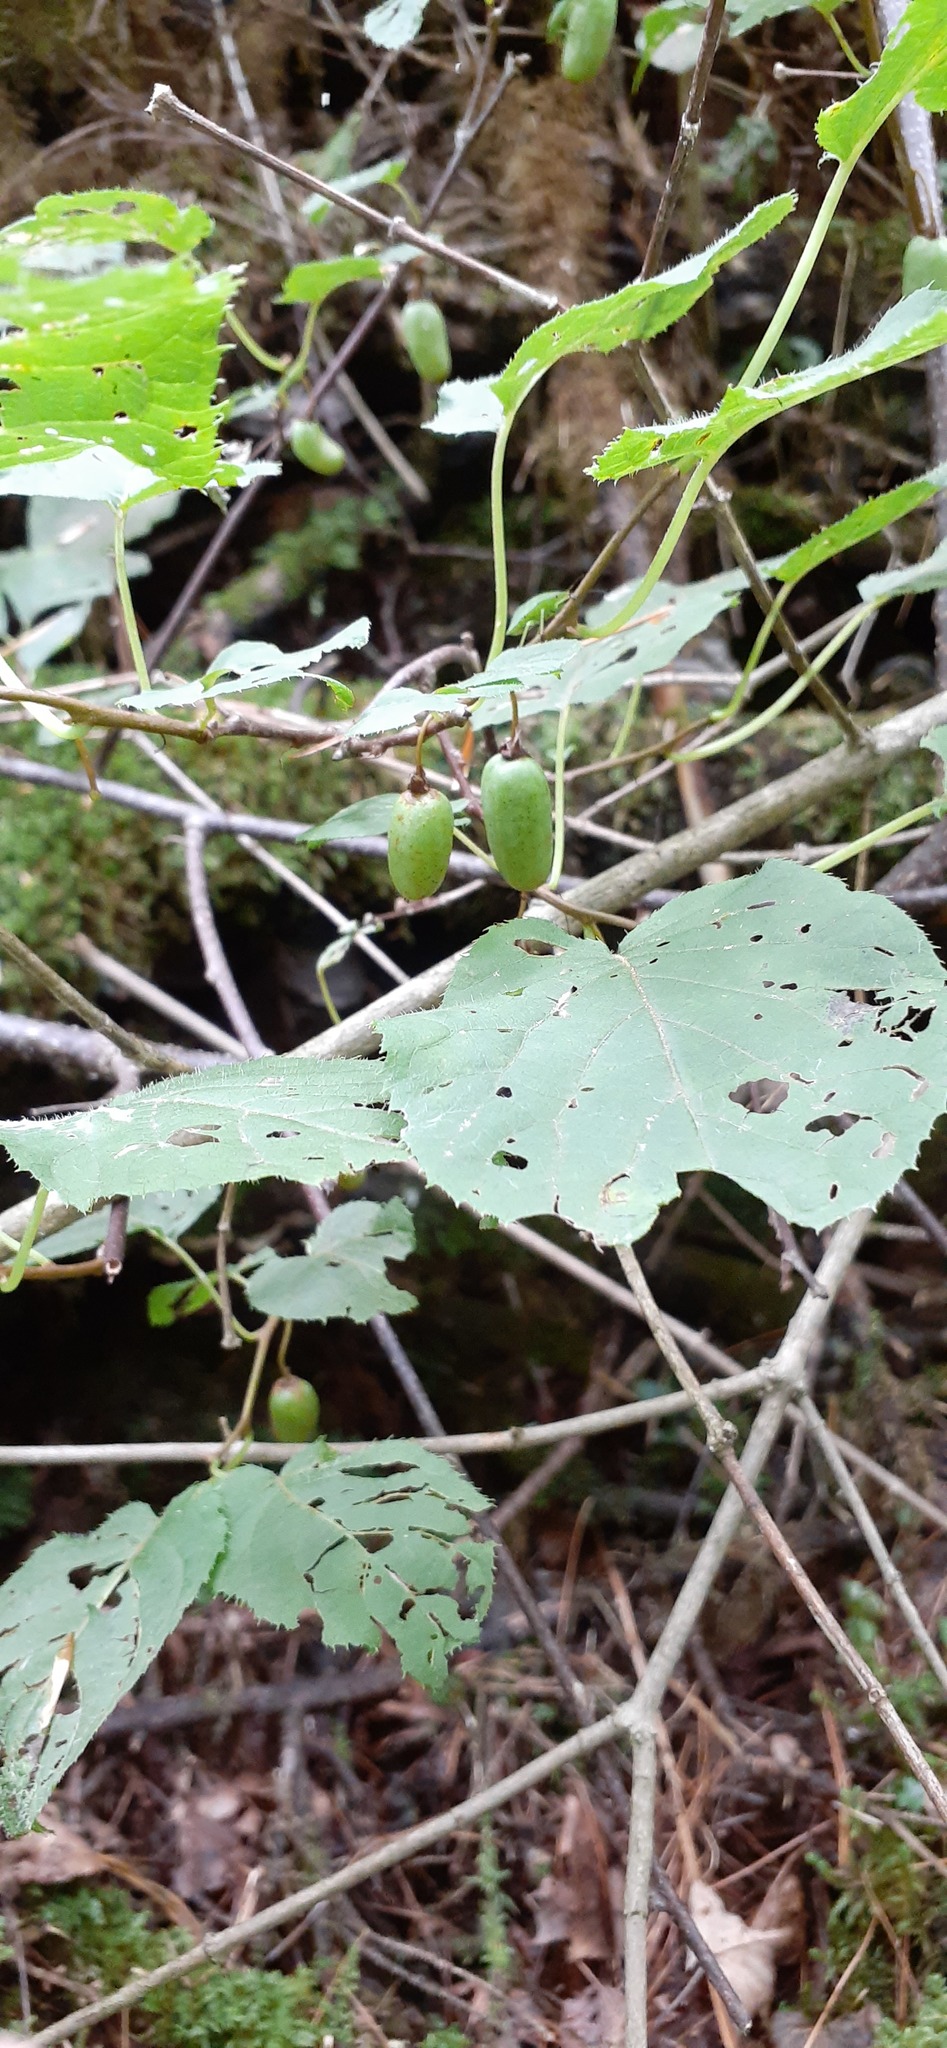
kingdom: Plantae
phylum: Tracheophyta
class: Magnoliopsida
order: Ericales
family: Actinidiaceae
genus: Actinidia
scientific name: Actinidia kolomikta
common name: Arctic beauty kiwi
